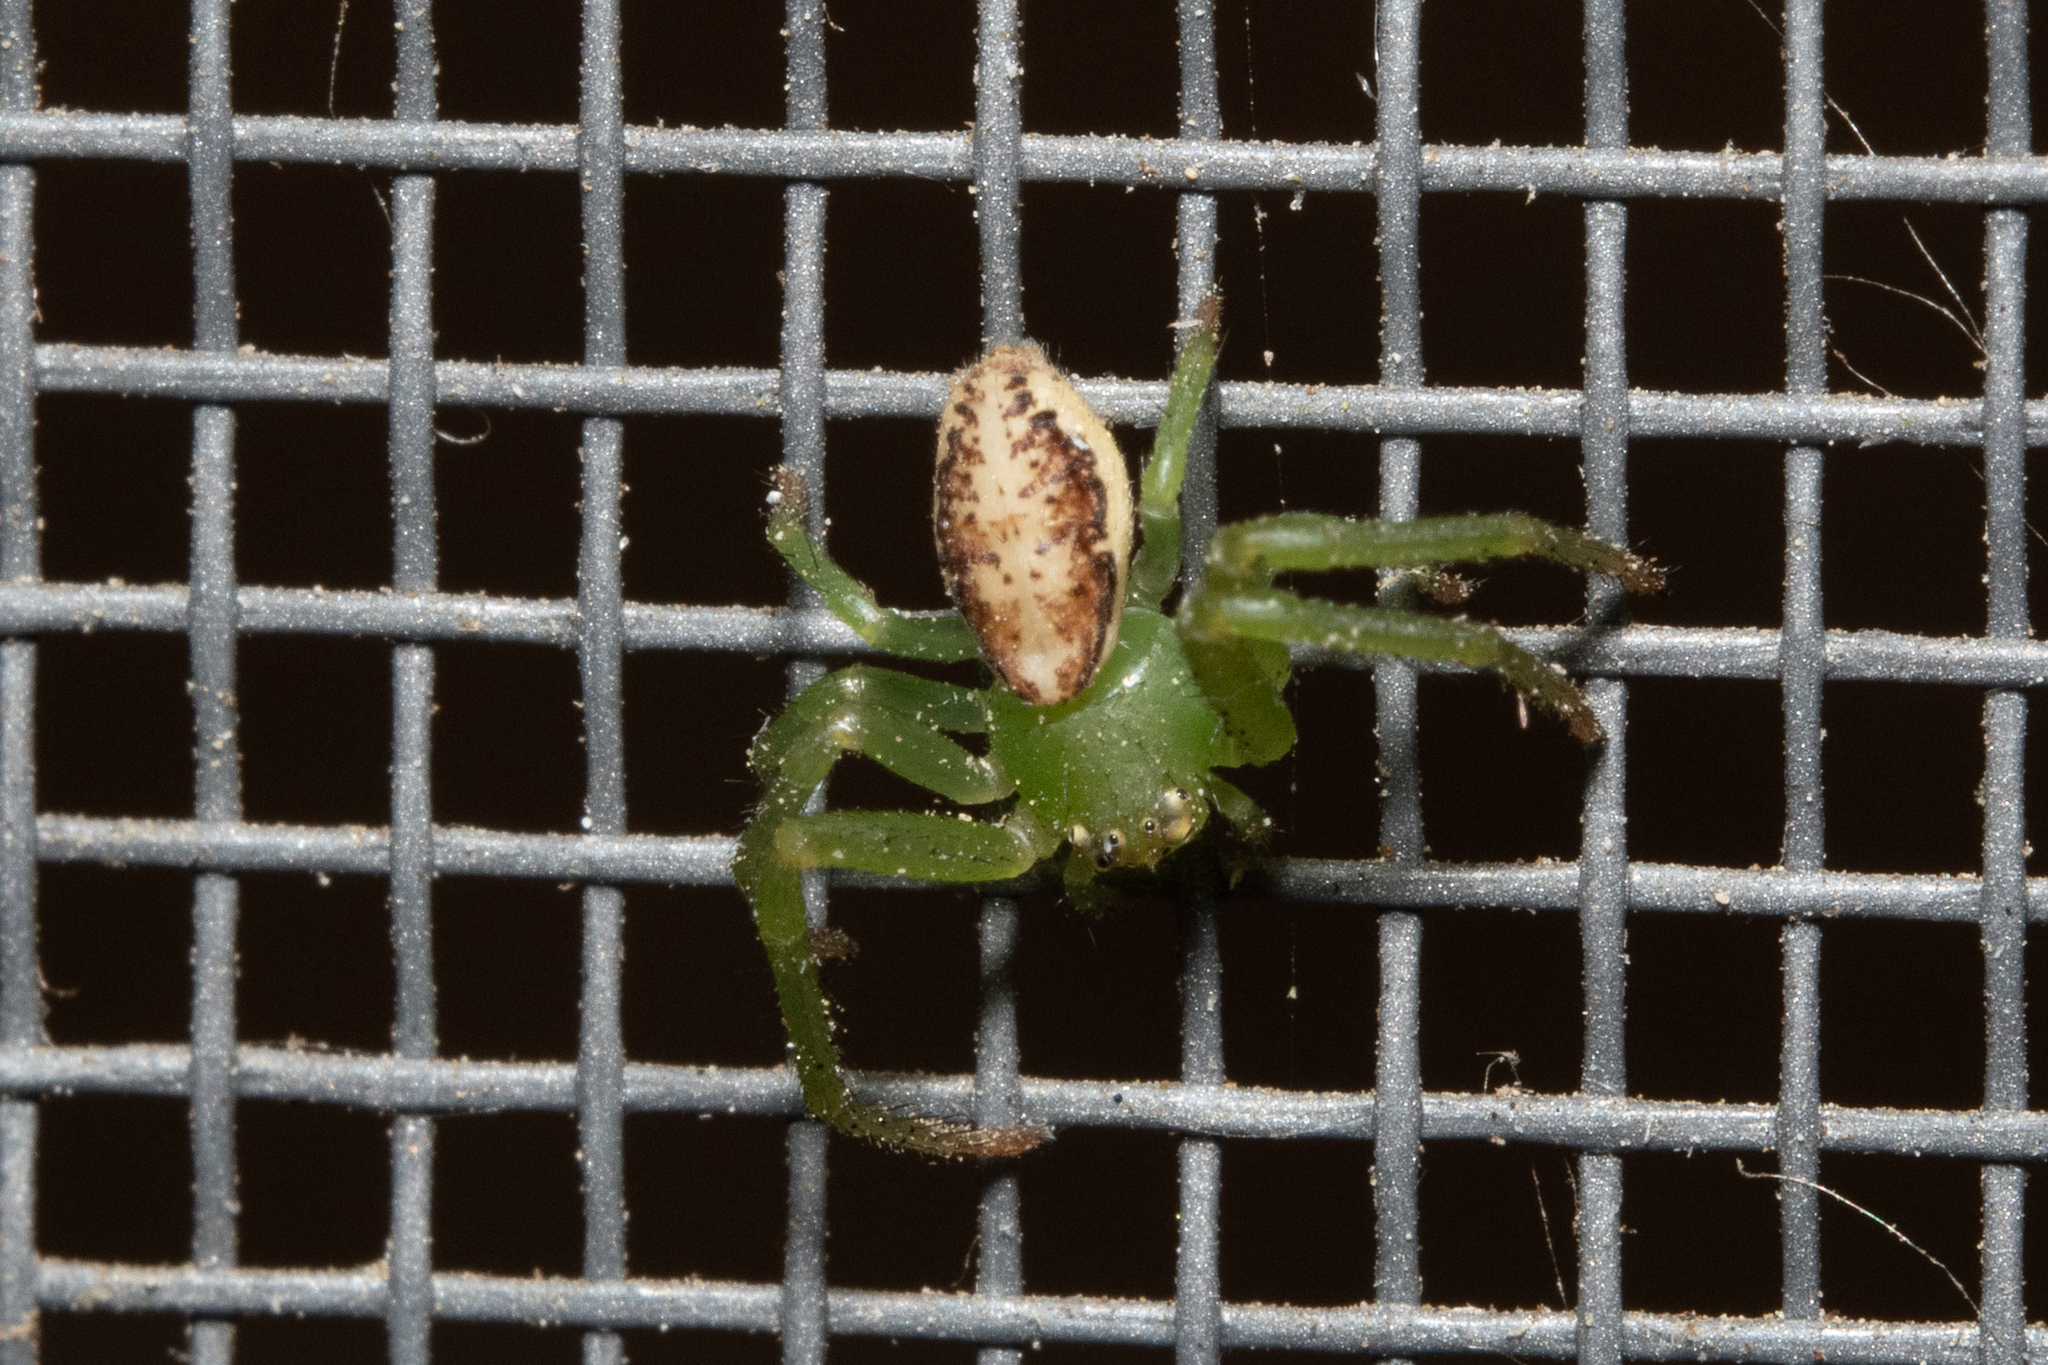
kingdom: Animalia
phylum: Arthropoda
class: Arachnida
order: Araneae
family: Thomisidae
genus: Diaea
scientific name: Diaea dorsata
